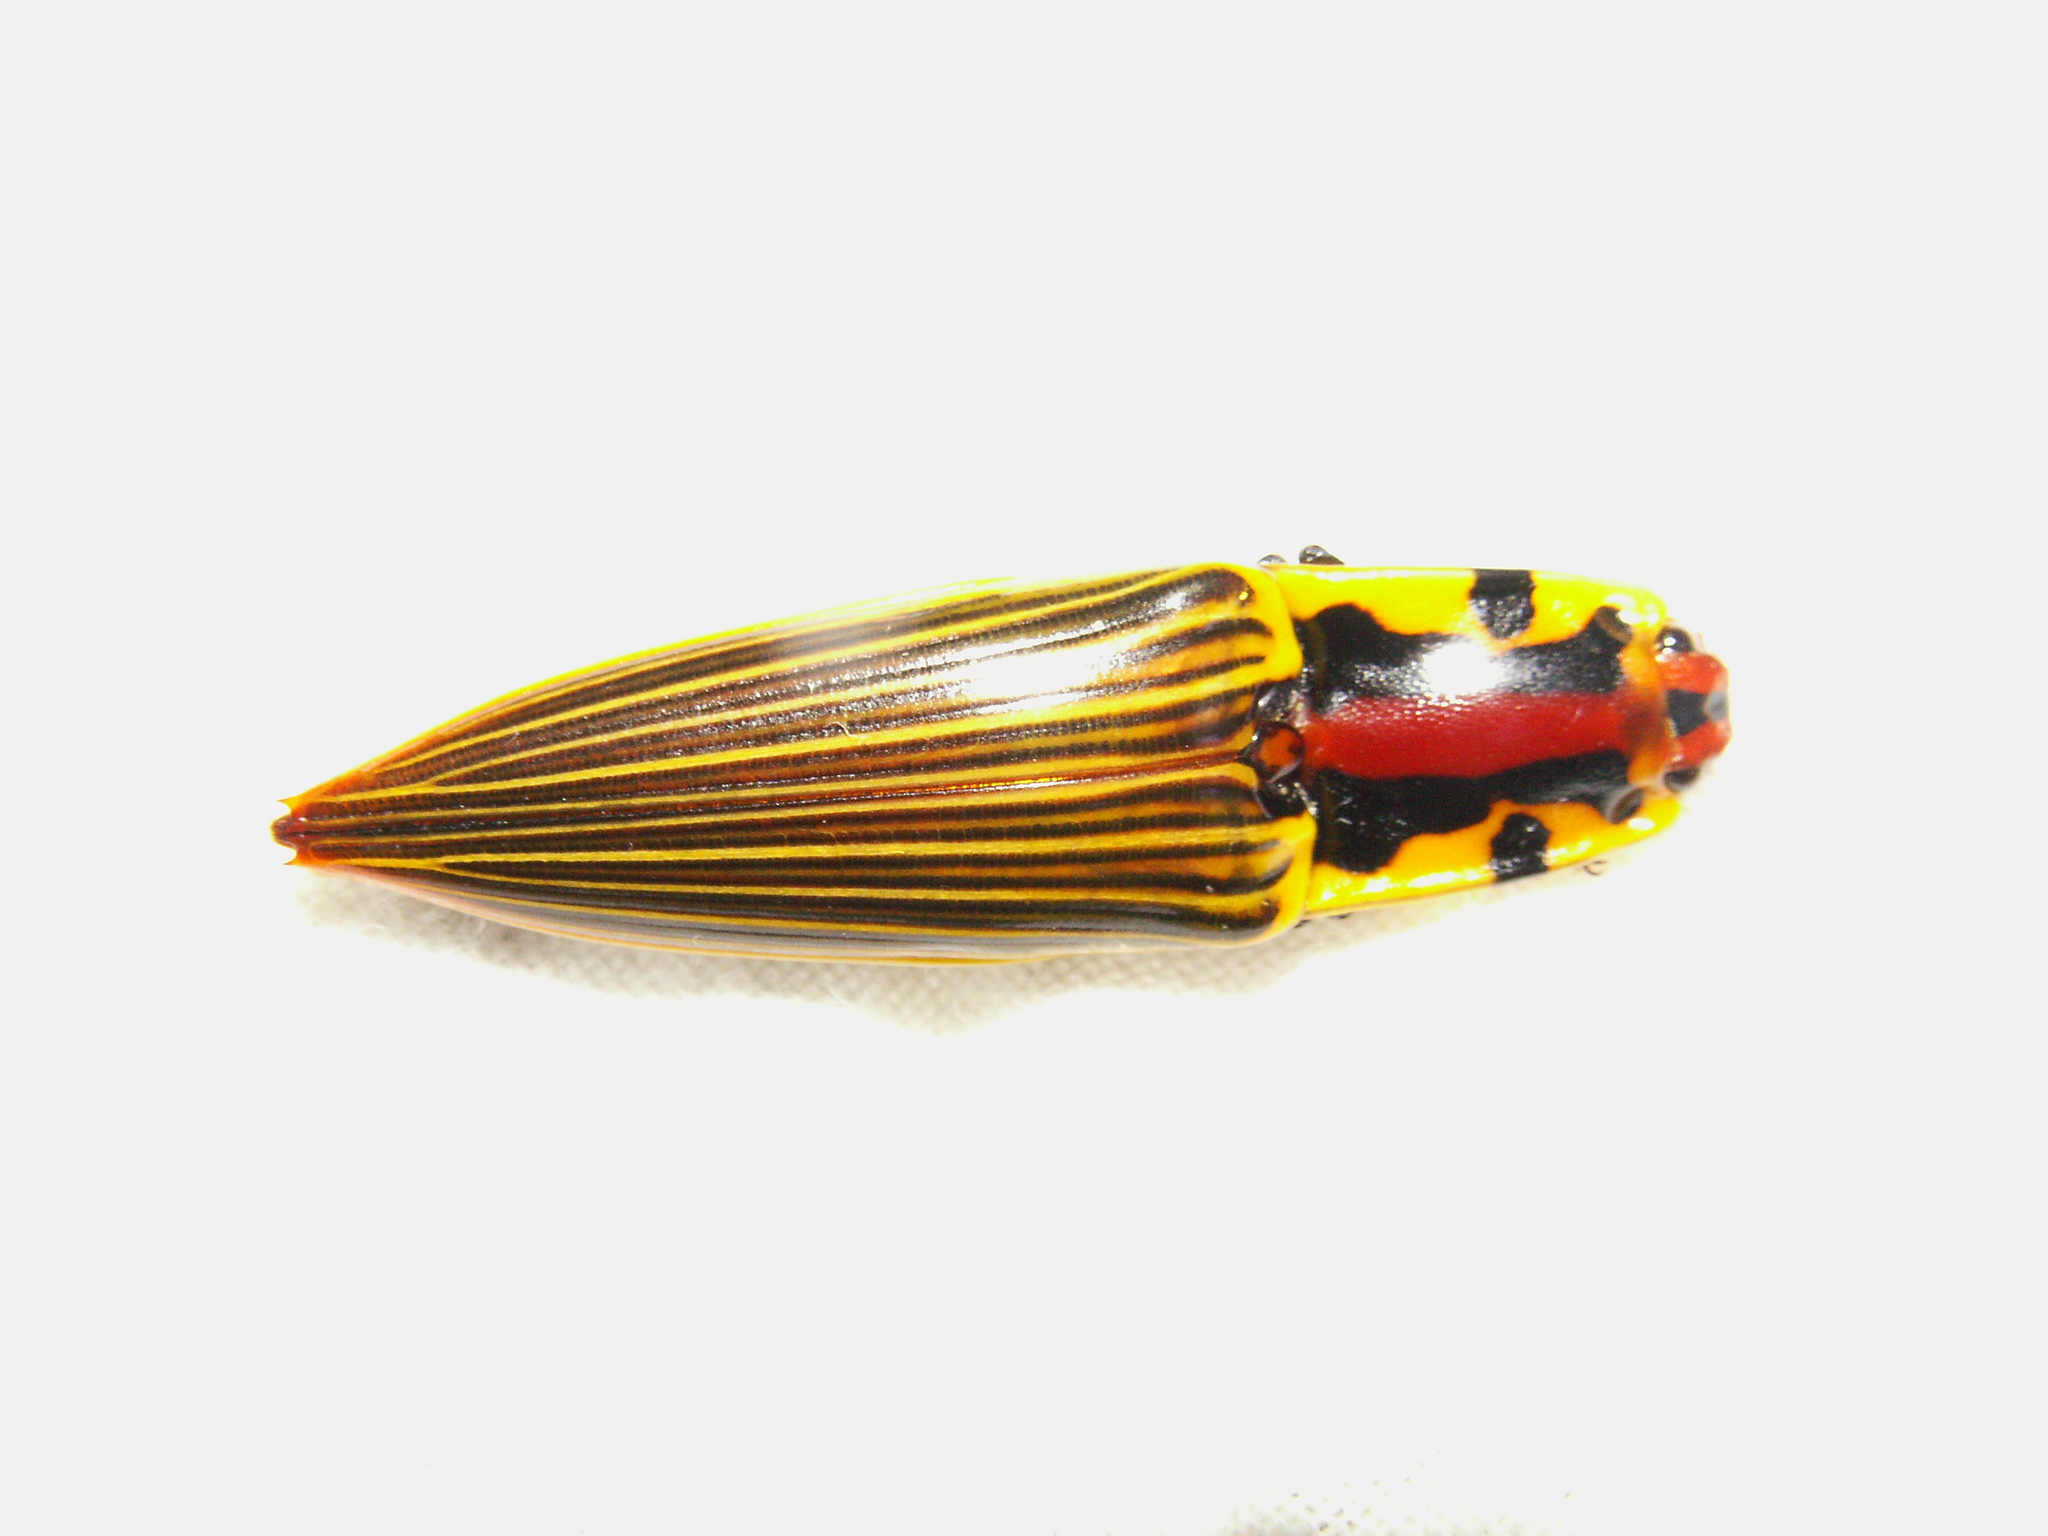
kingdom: Animalia
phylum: Arthropoda
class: Insecta
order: Coleoptera
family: Elateridae
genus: Semiotus
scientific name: Semiotus
